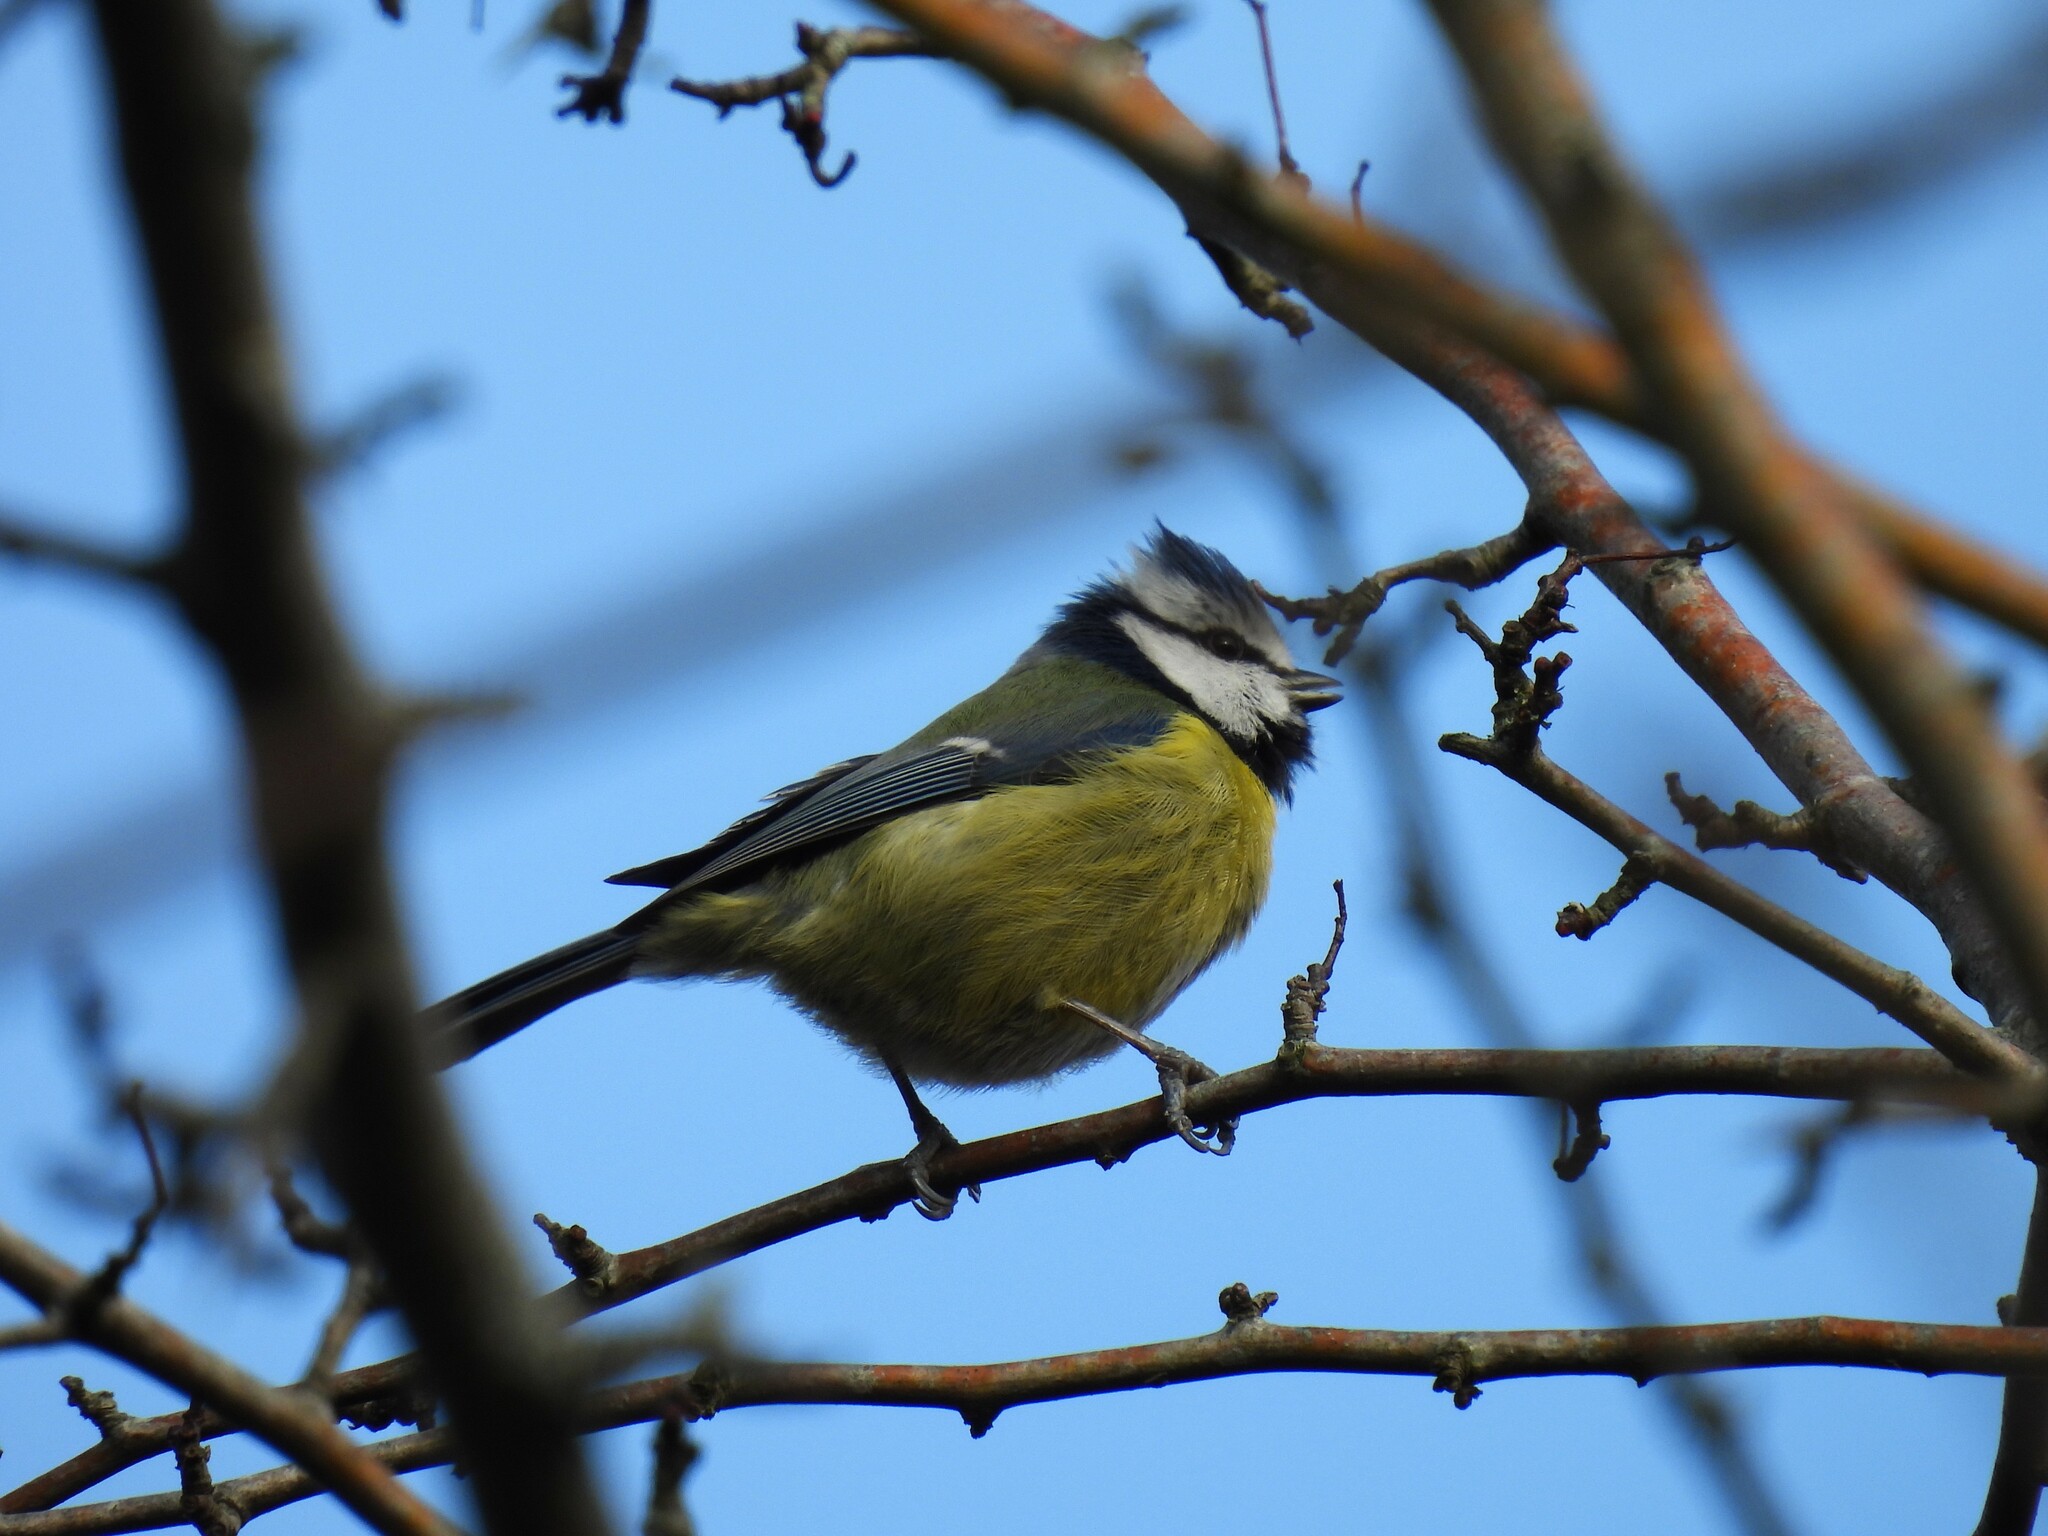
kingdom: Animalia
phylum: Chordata
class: Aves
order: Passeriformes
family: Paridae
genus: Cyanistes
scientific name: Cyanistes caeruleus
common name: Eurasian blue tit
